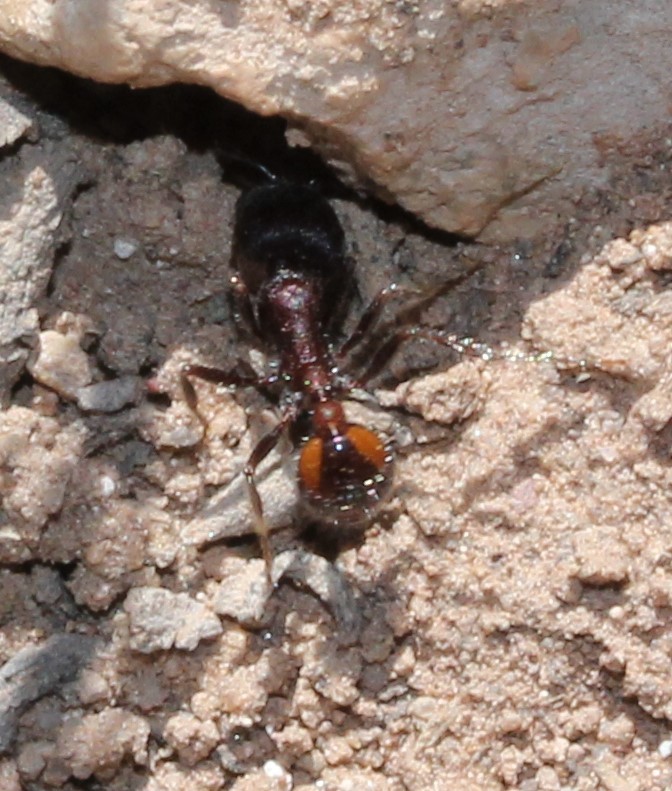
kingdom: Animalia
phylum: Arthropoda
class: Insecta
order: Hymenoptera
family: Formicidae
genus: Pogonomyrmex
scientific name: Pogonomyrmex rugosus
